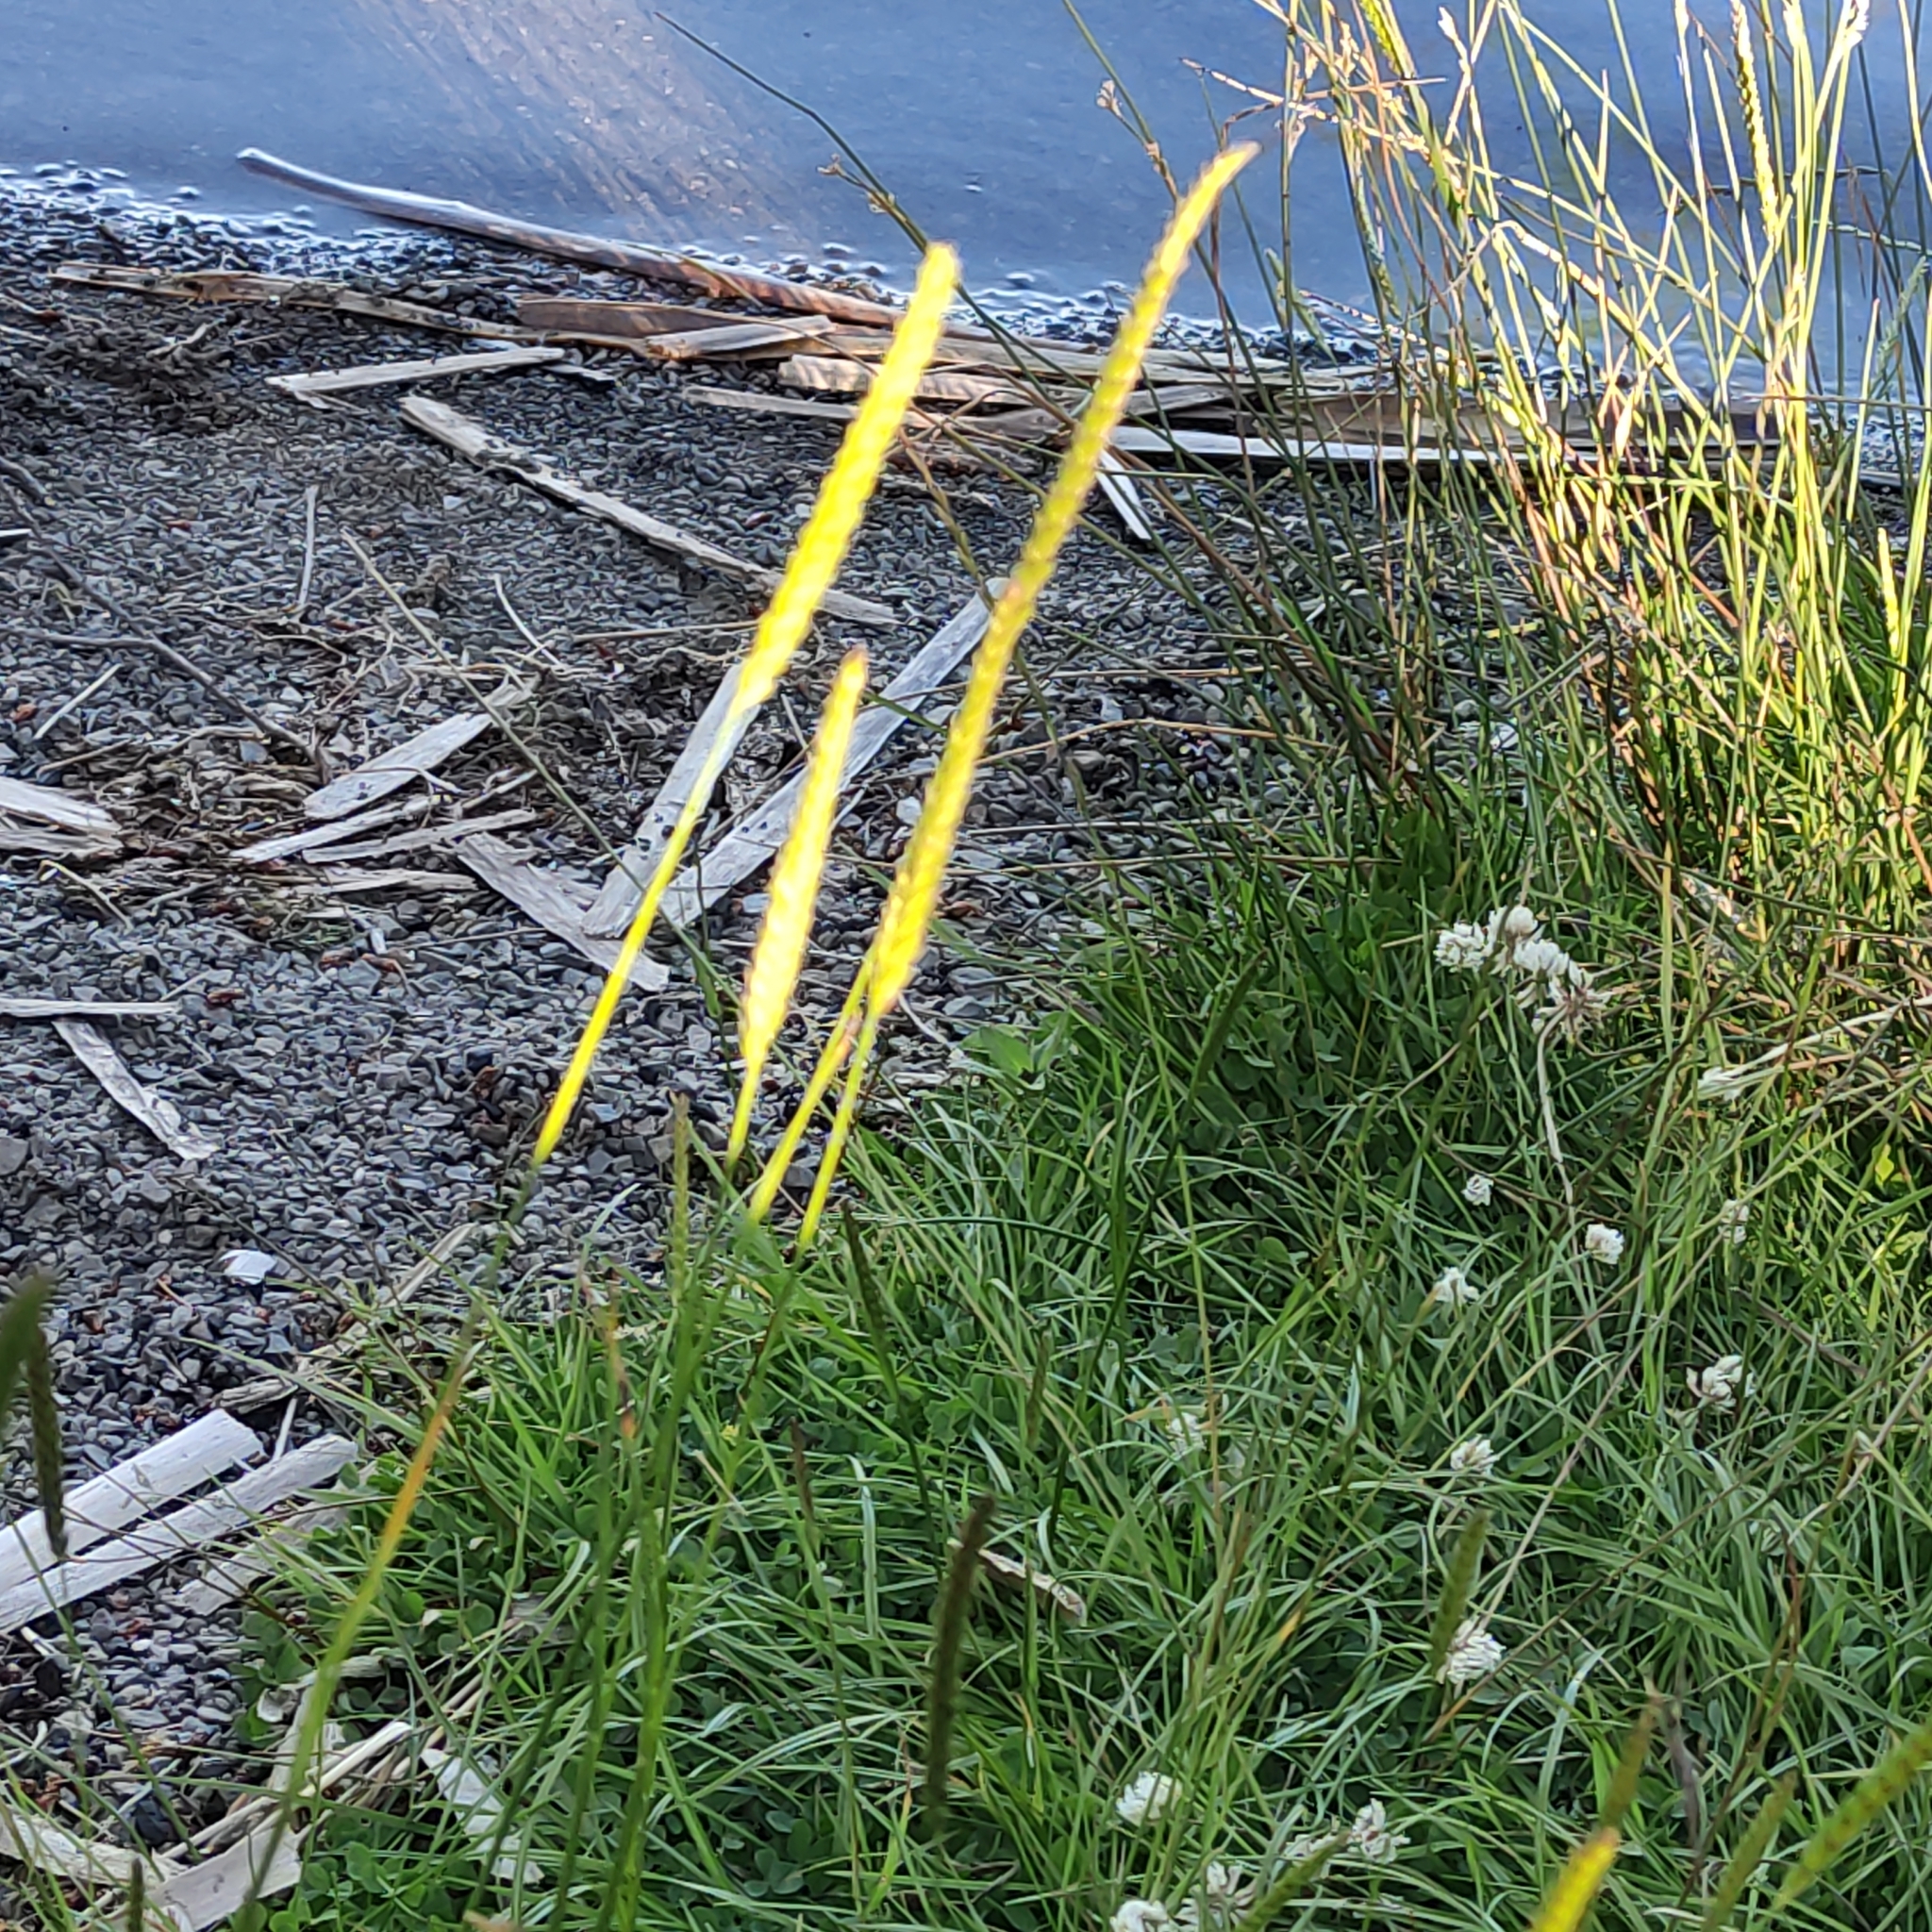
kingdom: Plantae
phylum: Tracheophyta
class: Liliopsida
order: Poales
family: Poaceae
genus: Cynosurus
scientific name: Cynosurus cristatus
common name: Crested dog's-tail
